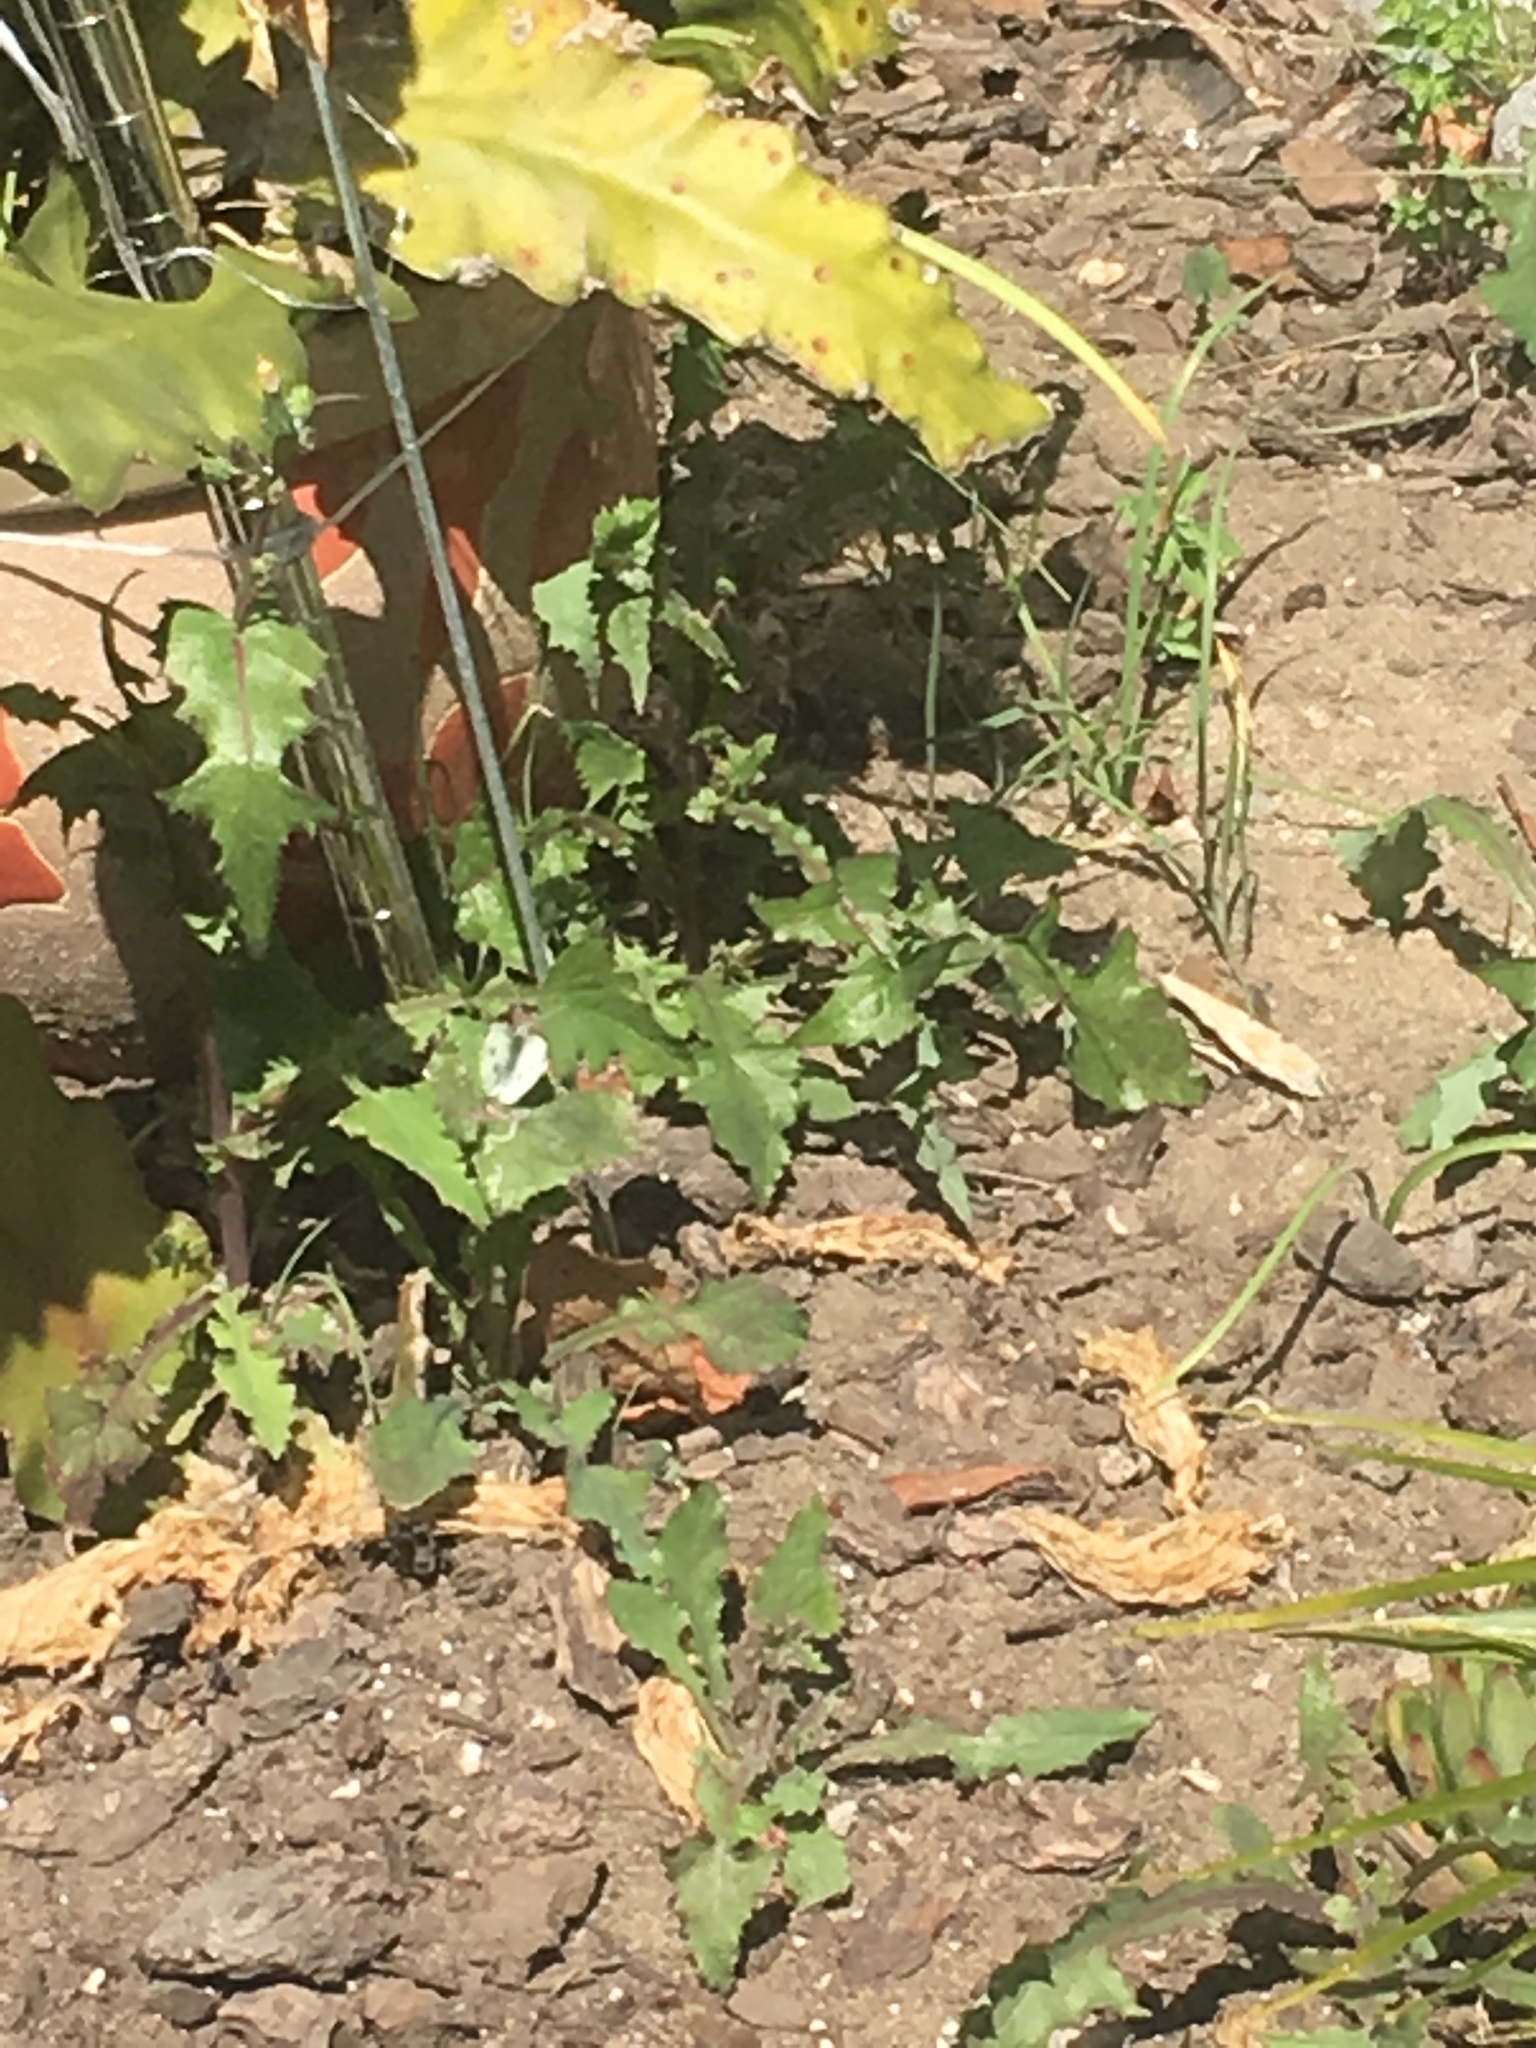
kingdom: Animalia
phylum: Arthropoda
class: Insecta
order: Lepidoptera
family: Pieridae
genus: Pieris
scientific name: Pieris rapae
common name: Small white
